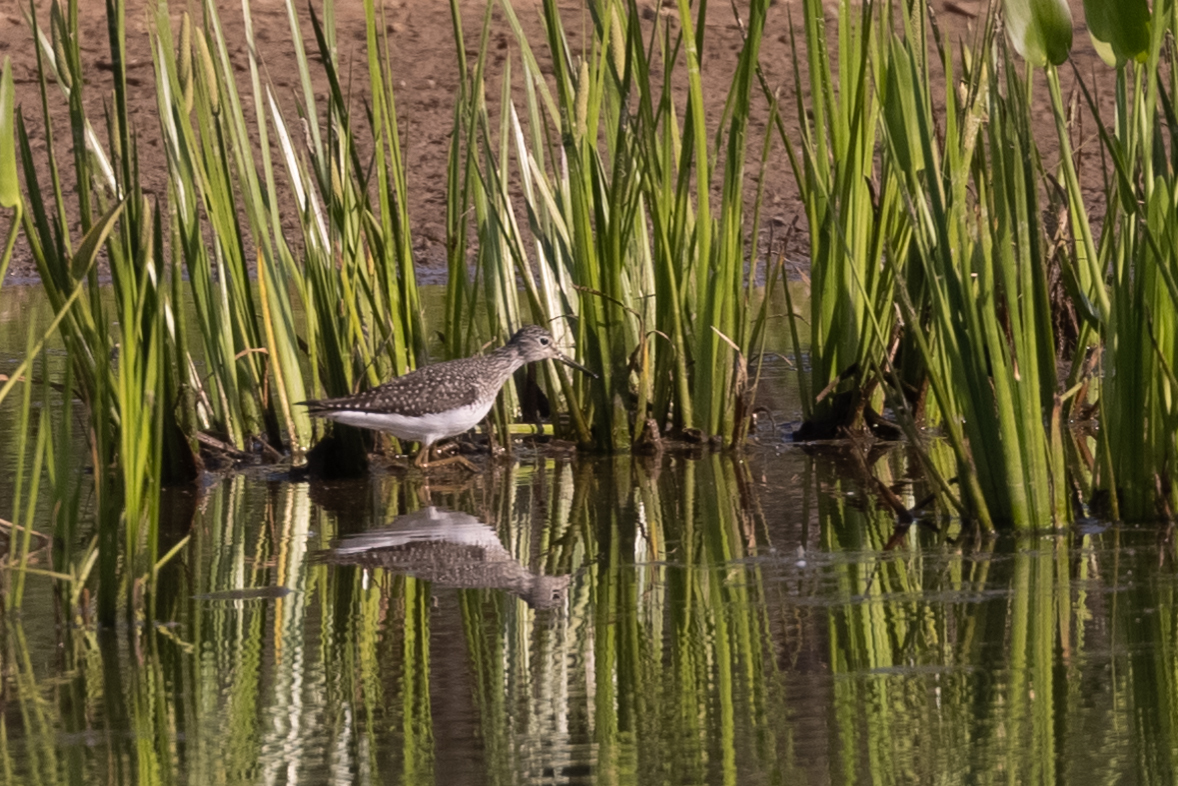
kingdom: Animalia
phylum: Chordata
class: Aves
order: Charadriiformes
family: Scolopacidae
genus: Tringa
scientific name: Tringa solitaria
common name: Solitary sandpiper
